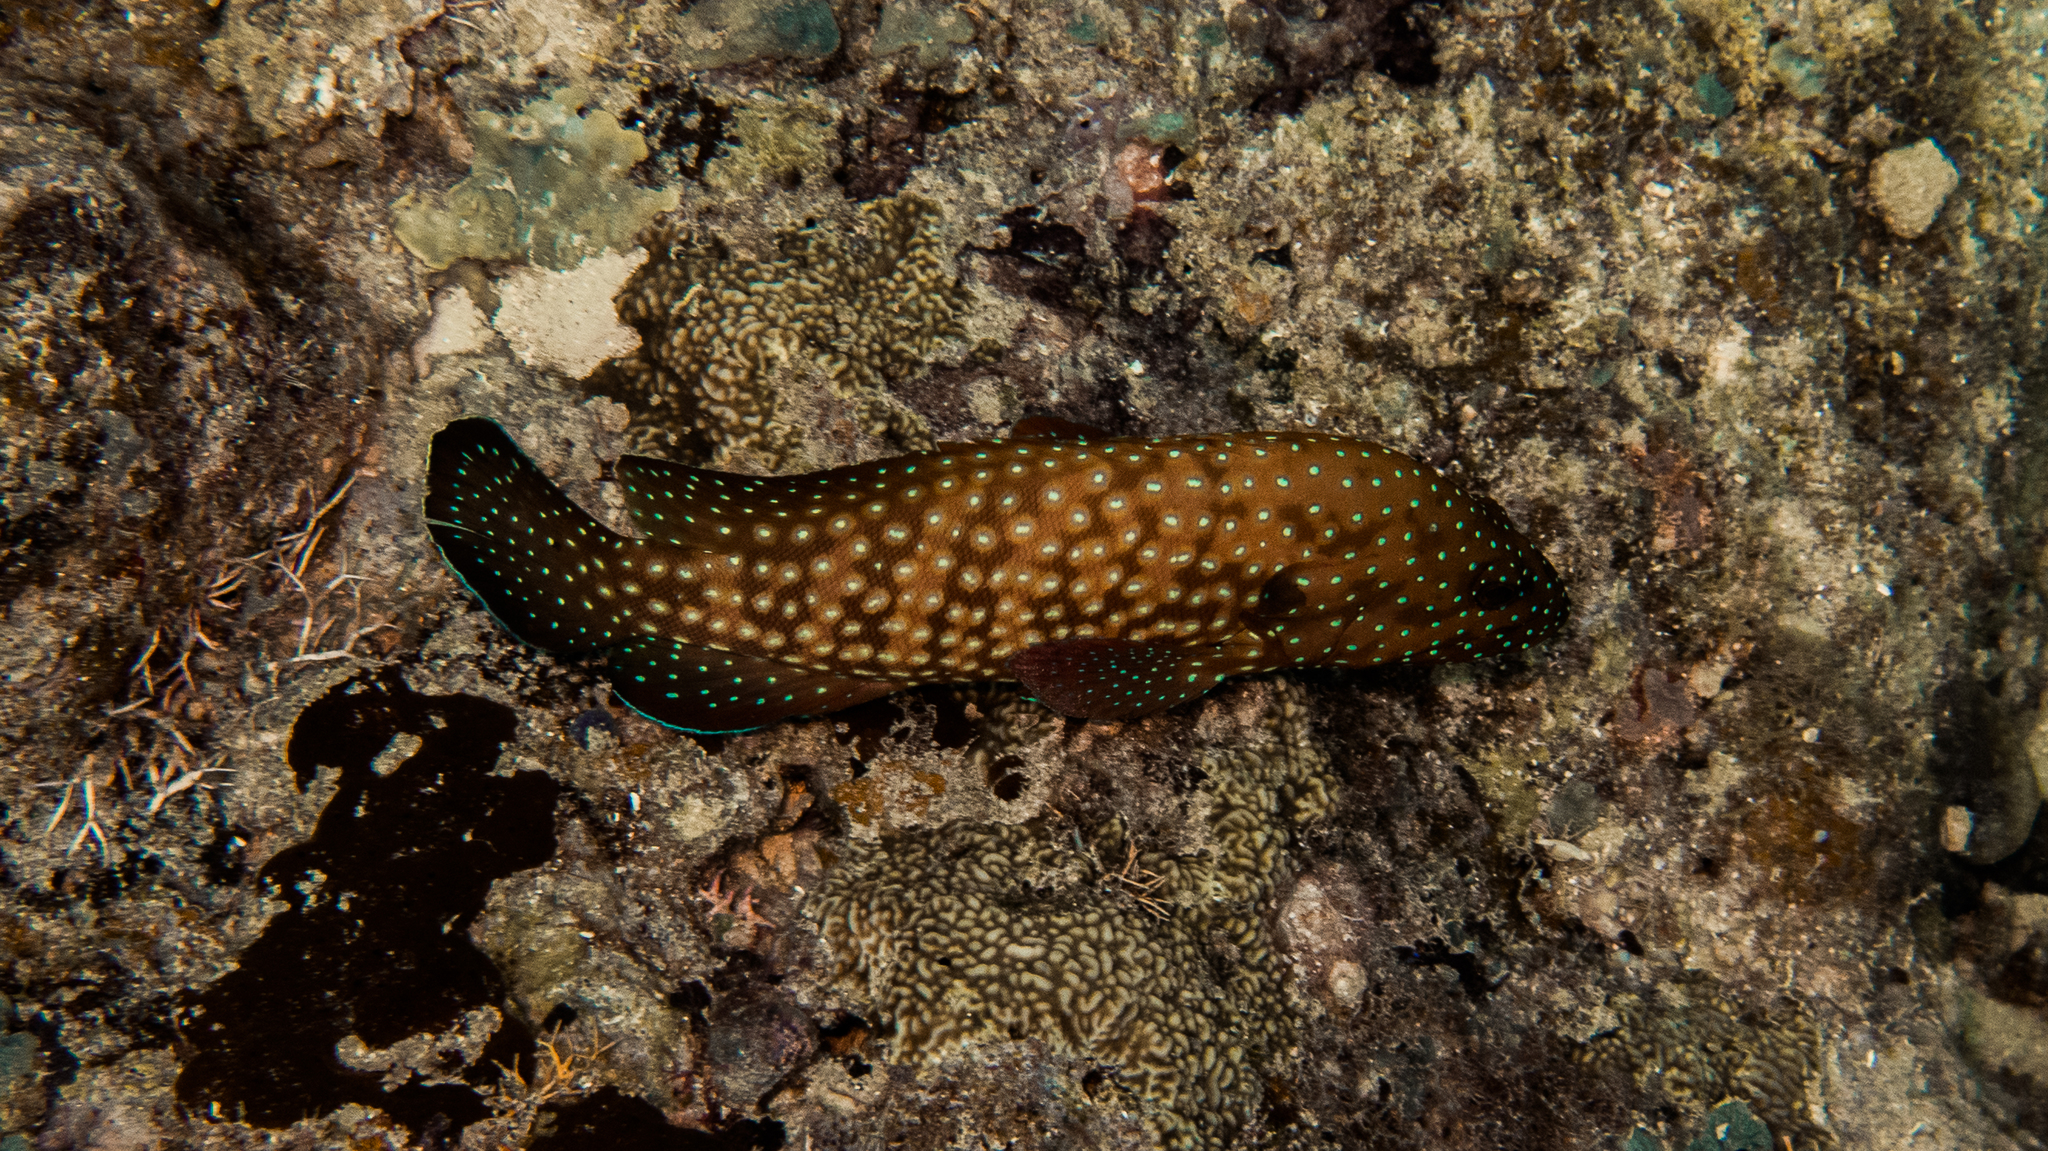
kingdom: Animalia
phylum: Chordata
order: Perciformes
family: Serranidae
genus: Cephalopholis
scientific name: Cephalopholis cyanostigma
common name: Bluespotted hind
